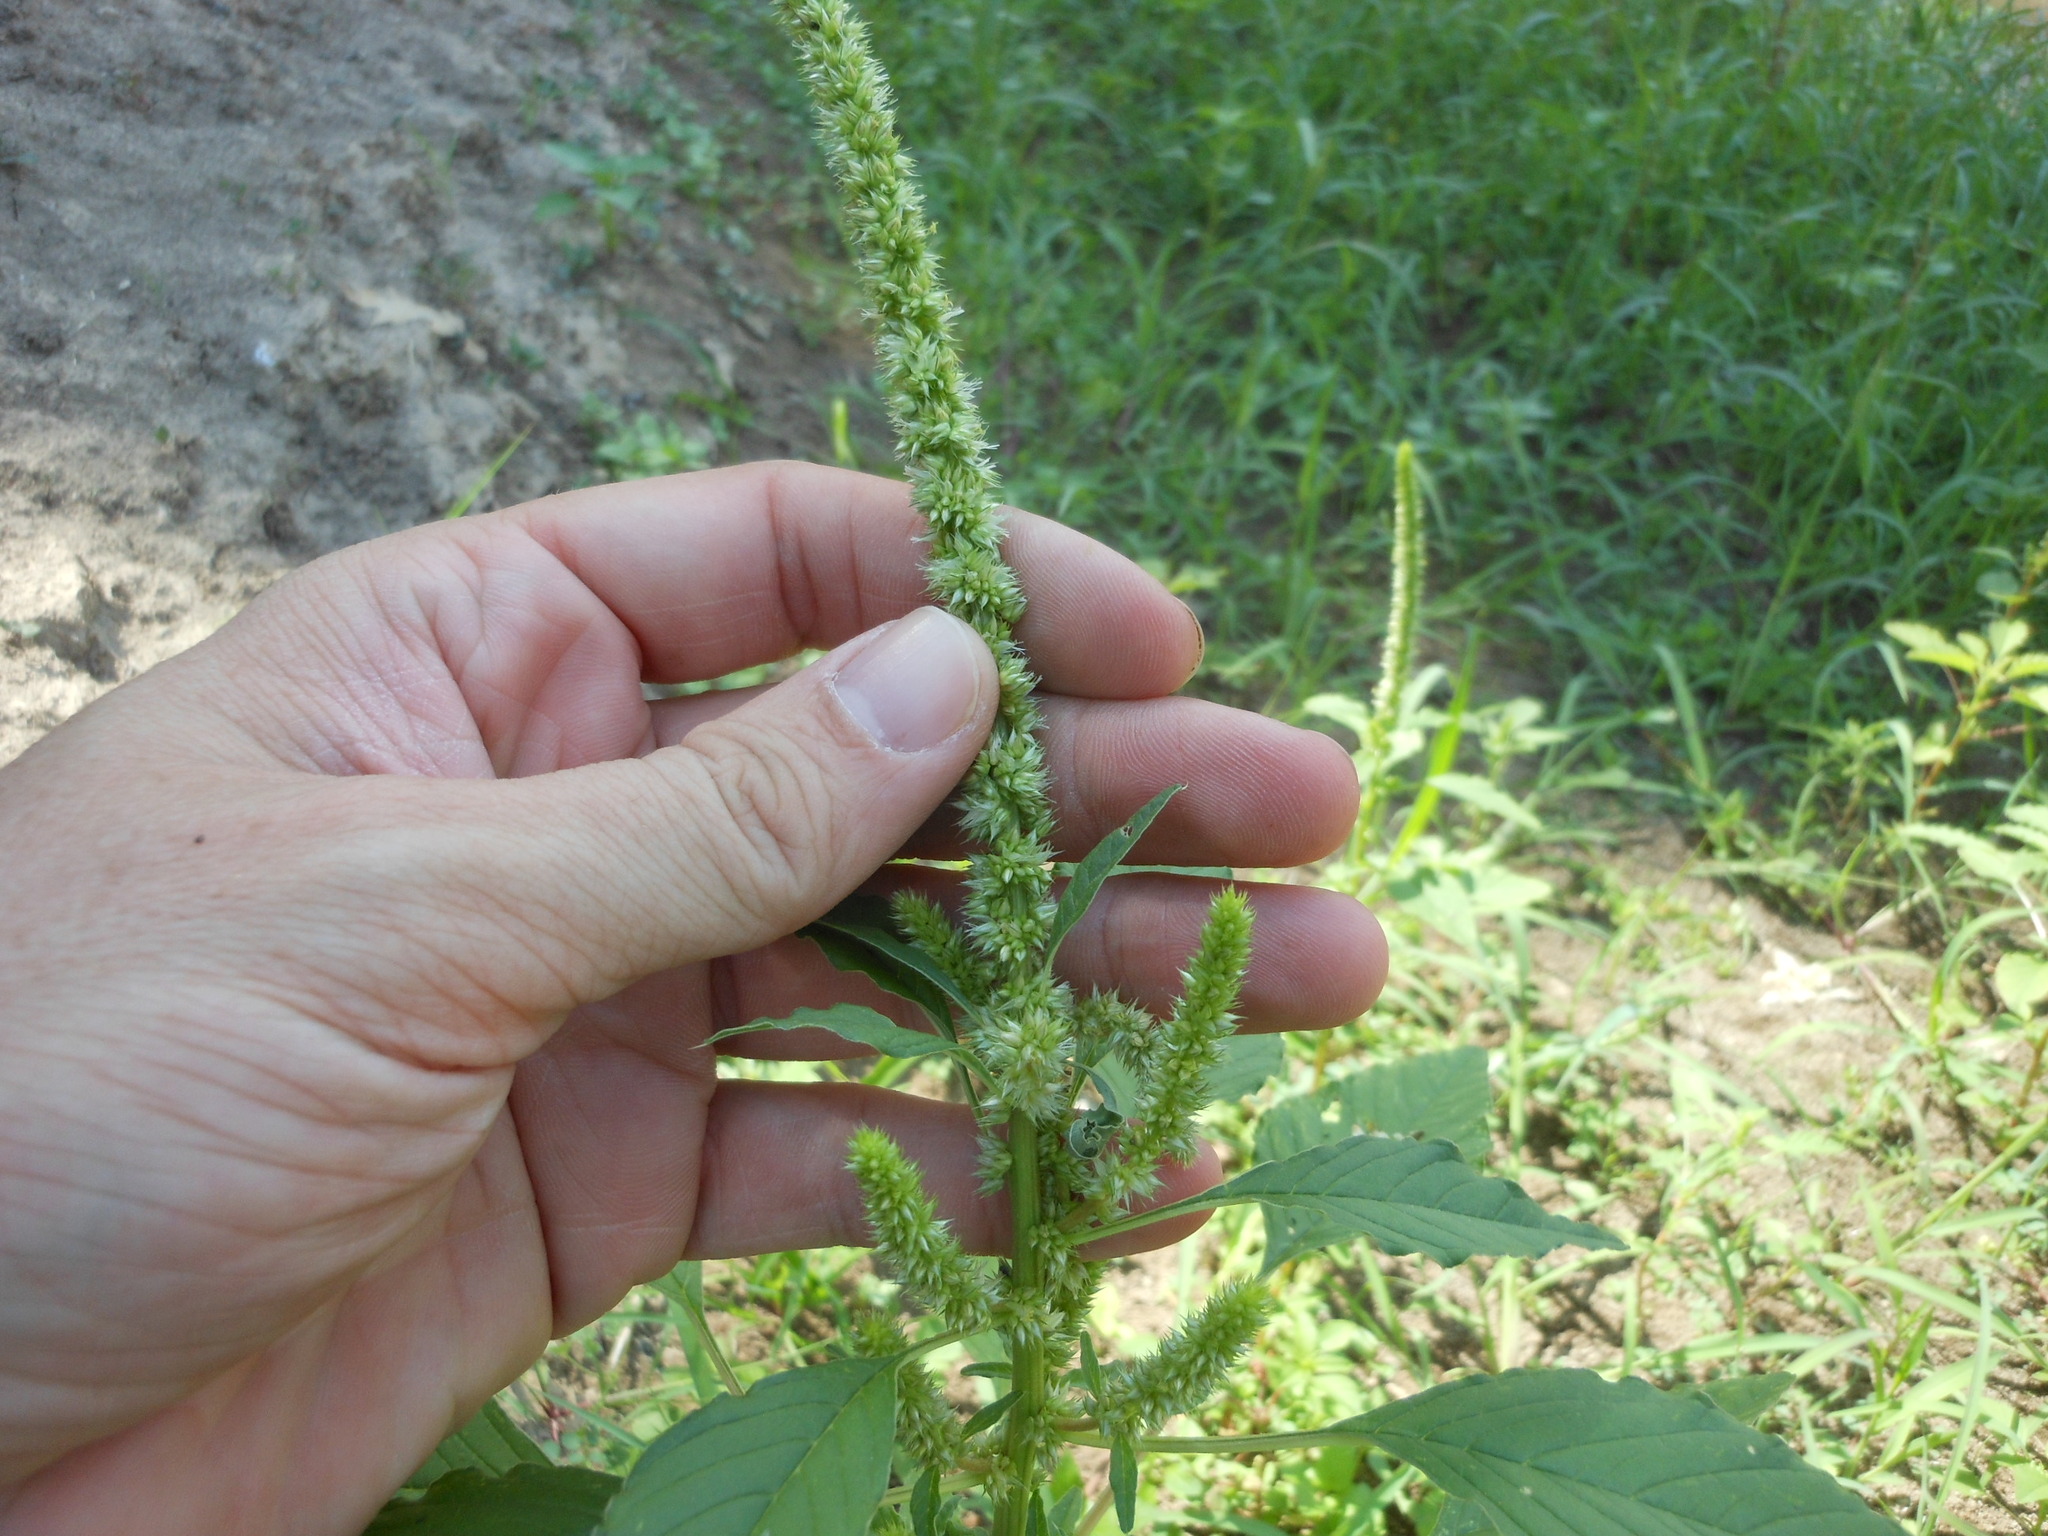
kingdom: Plantae
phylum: Tracheophyta
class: Magnoliopsida
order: Caryophyllales
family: Amaranthaceae
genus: Amaranthus
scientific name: Amaranthus palmeri
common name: Dioecious amaranth
